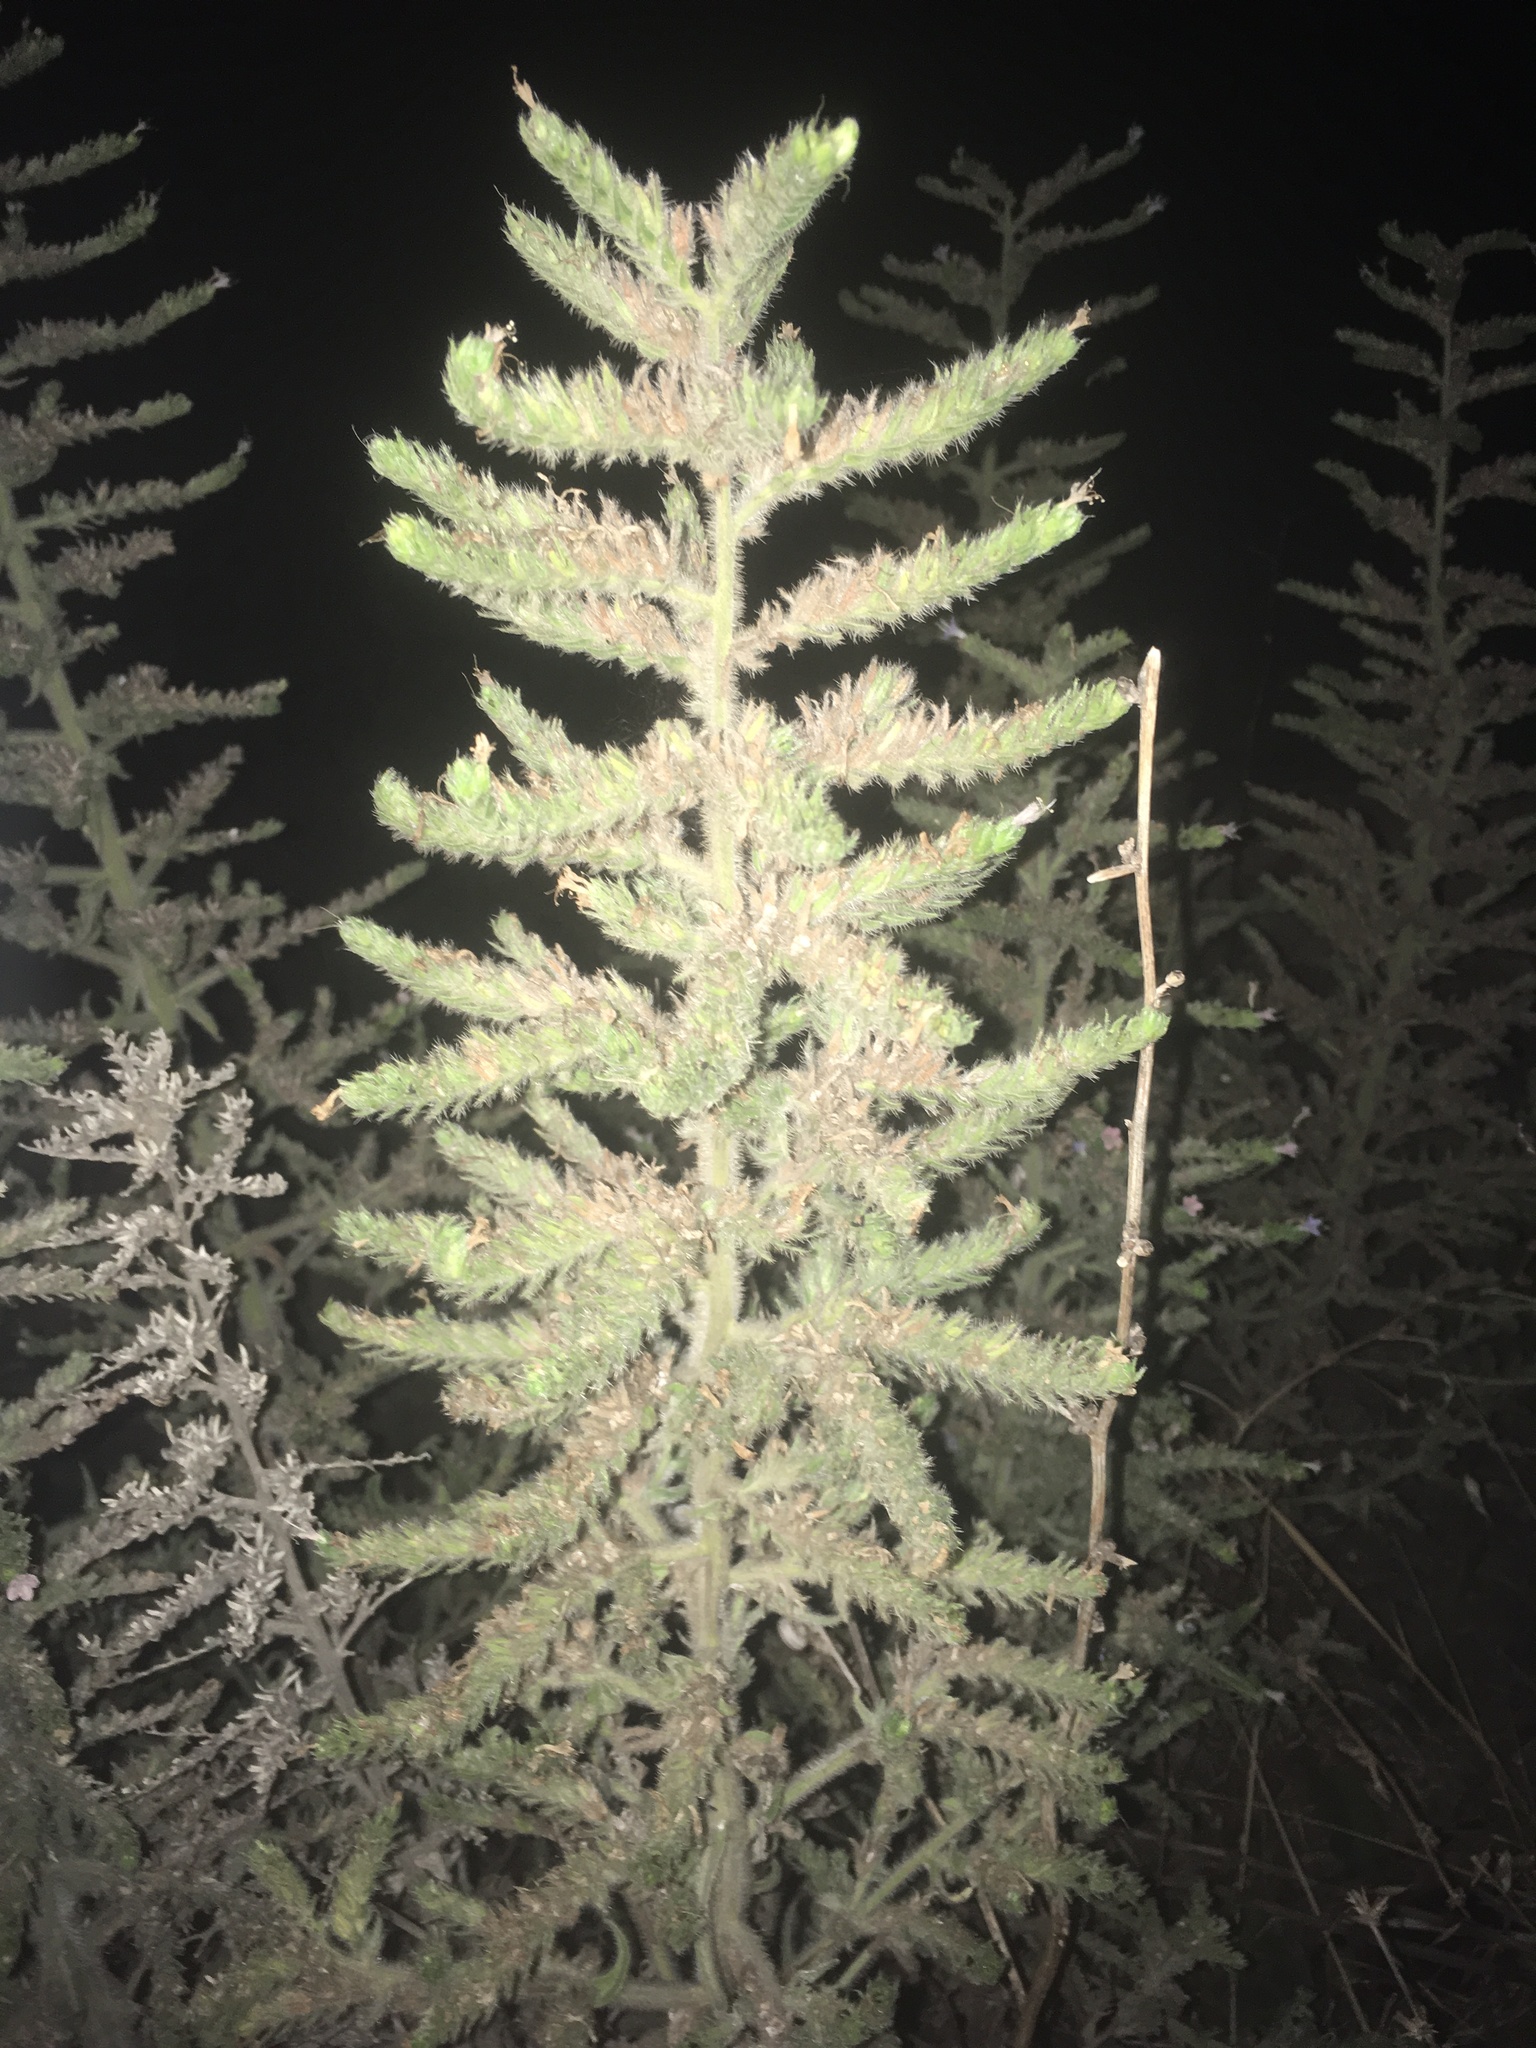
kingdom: Plantae
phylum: Tracheophyta
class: Magnoliopsida
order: Boraginales
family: Boraginaceae
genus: Echium
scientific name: Echium vulgare
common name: Common viper's bugloss
